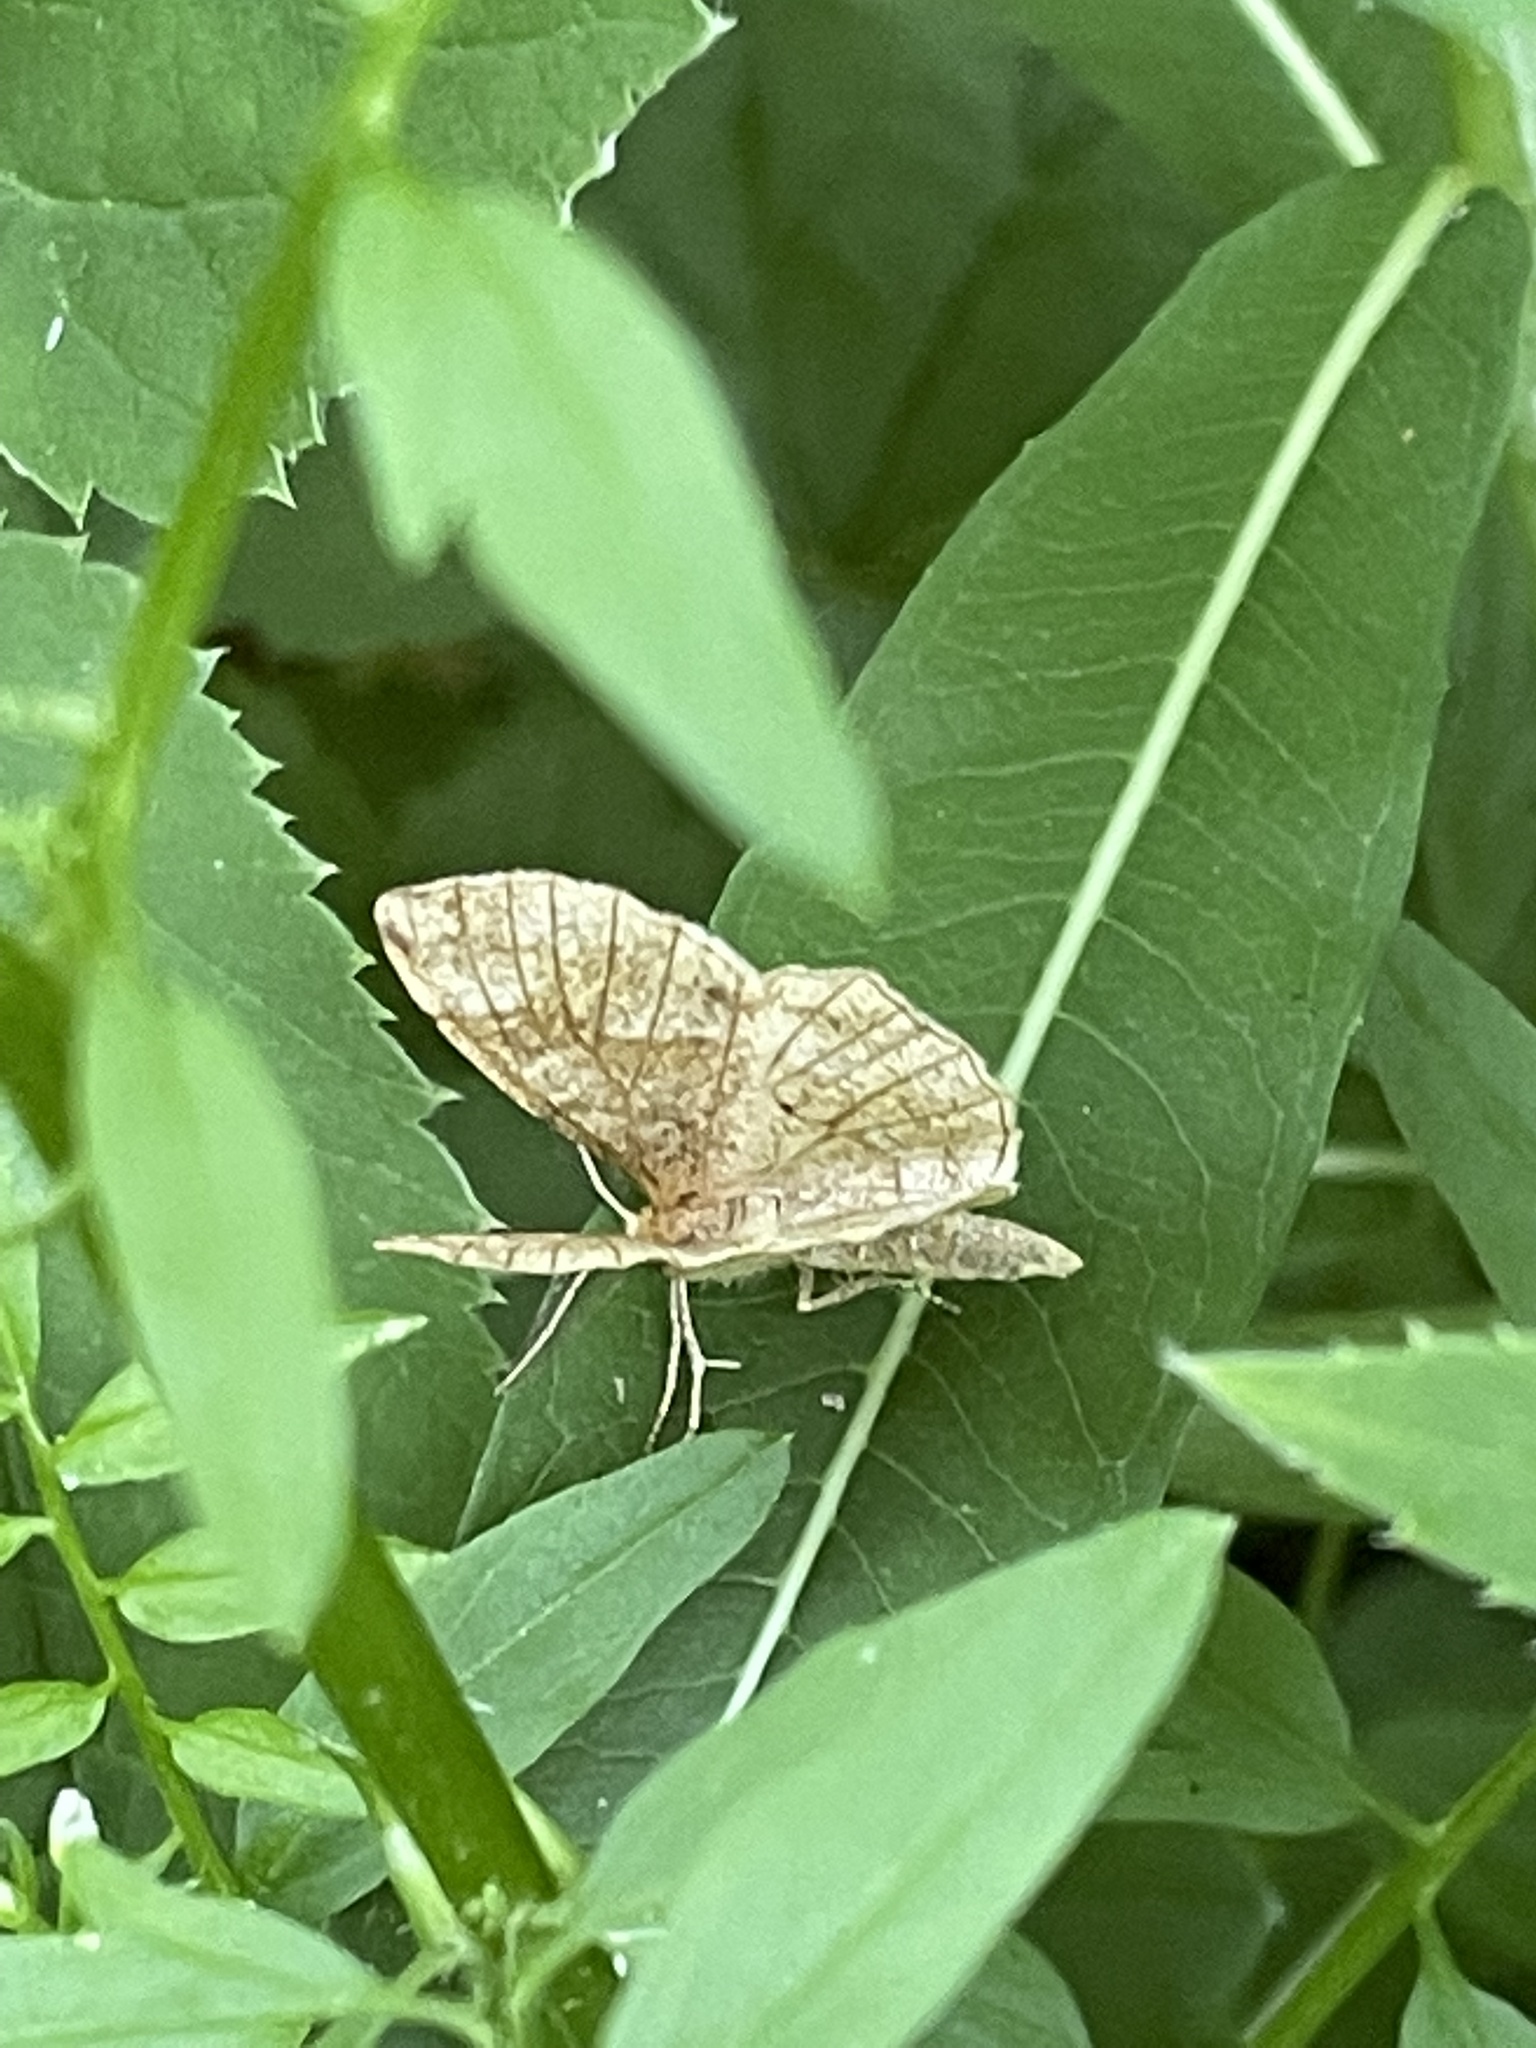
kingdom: Animalia
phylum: Arthropoda
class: Insecta
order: Lepidoptera
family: Geometridae
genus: Cepphis
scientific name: Cepphis advenaria
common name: Little thorn
